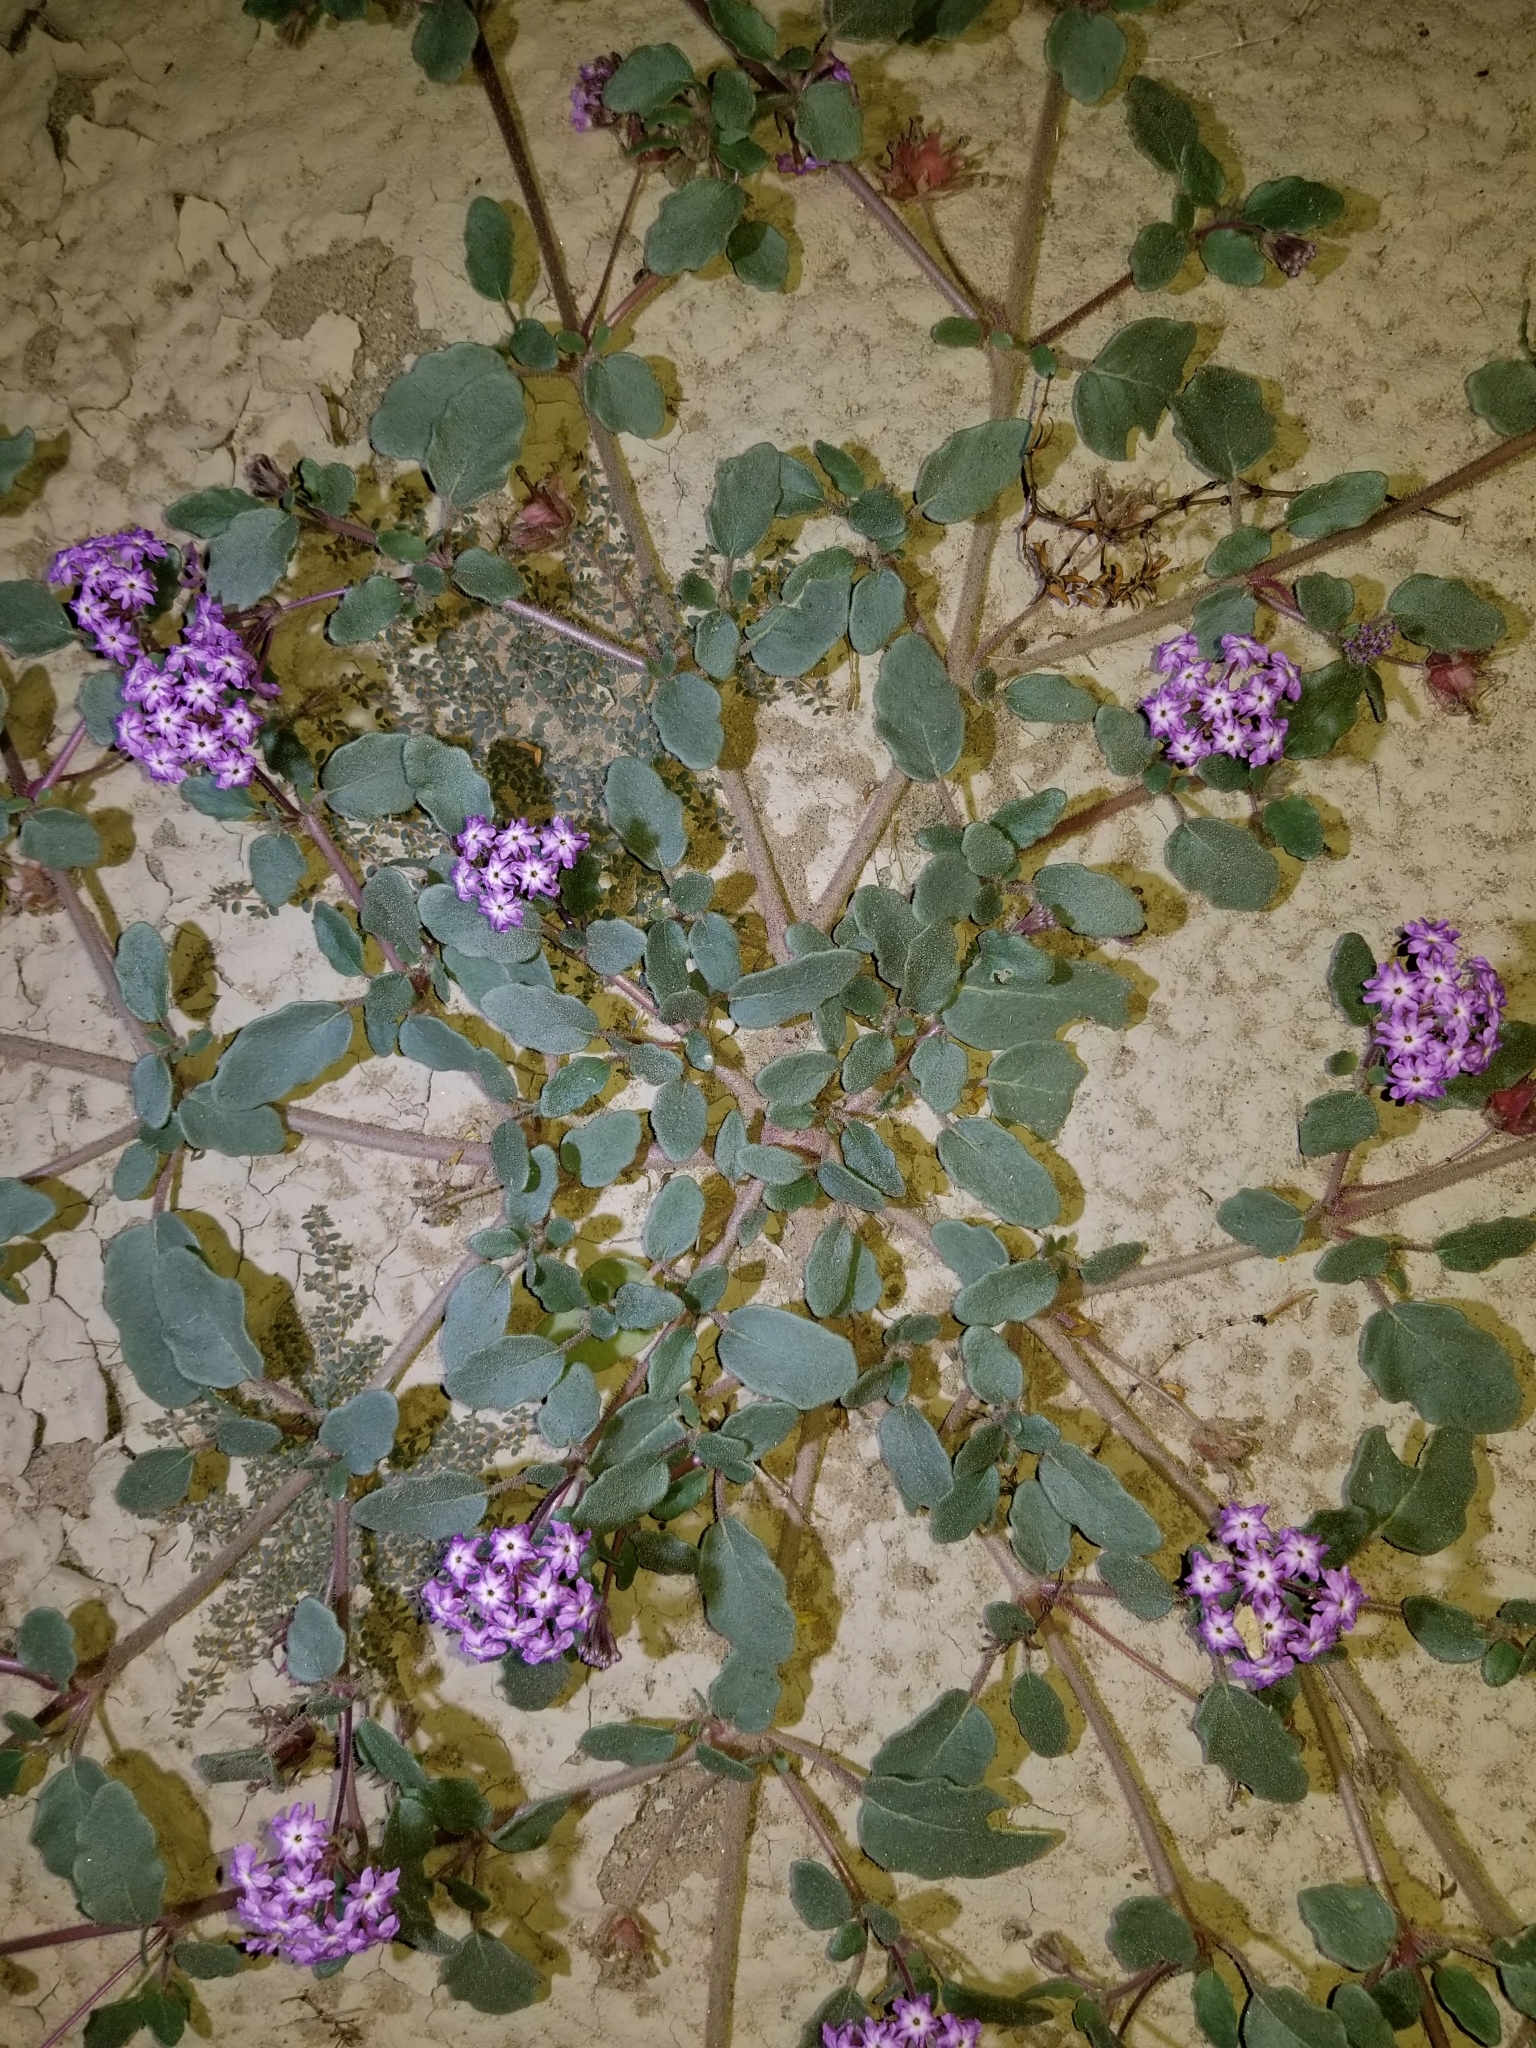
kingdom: Plantae
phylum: Tracheophyta
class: Magnoliopsida
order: Caryophyllales
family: Nyctaginaceae
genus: Abronia
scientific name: Abronia villosa
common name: Desert sand-verbena
